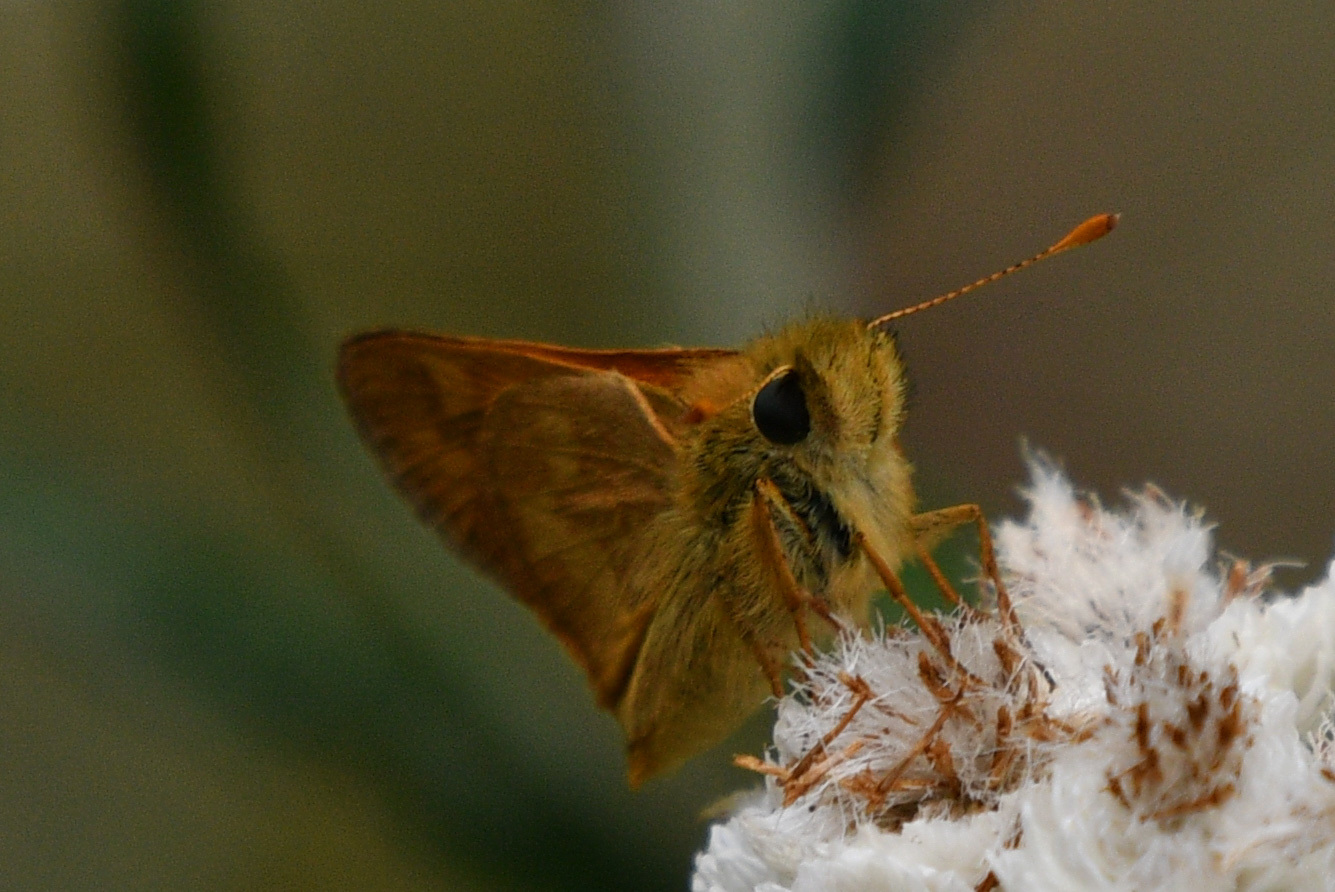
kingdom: Animalia
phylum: Arthropoda
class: Insecta
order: Lepidoptera
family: Hesperiidae
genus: Ochlodes
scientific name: Ochlodes sylvanoides
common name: Woodland skipper
